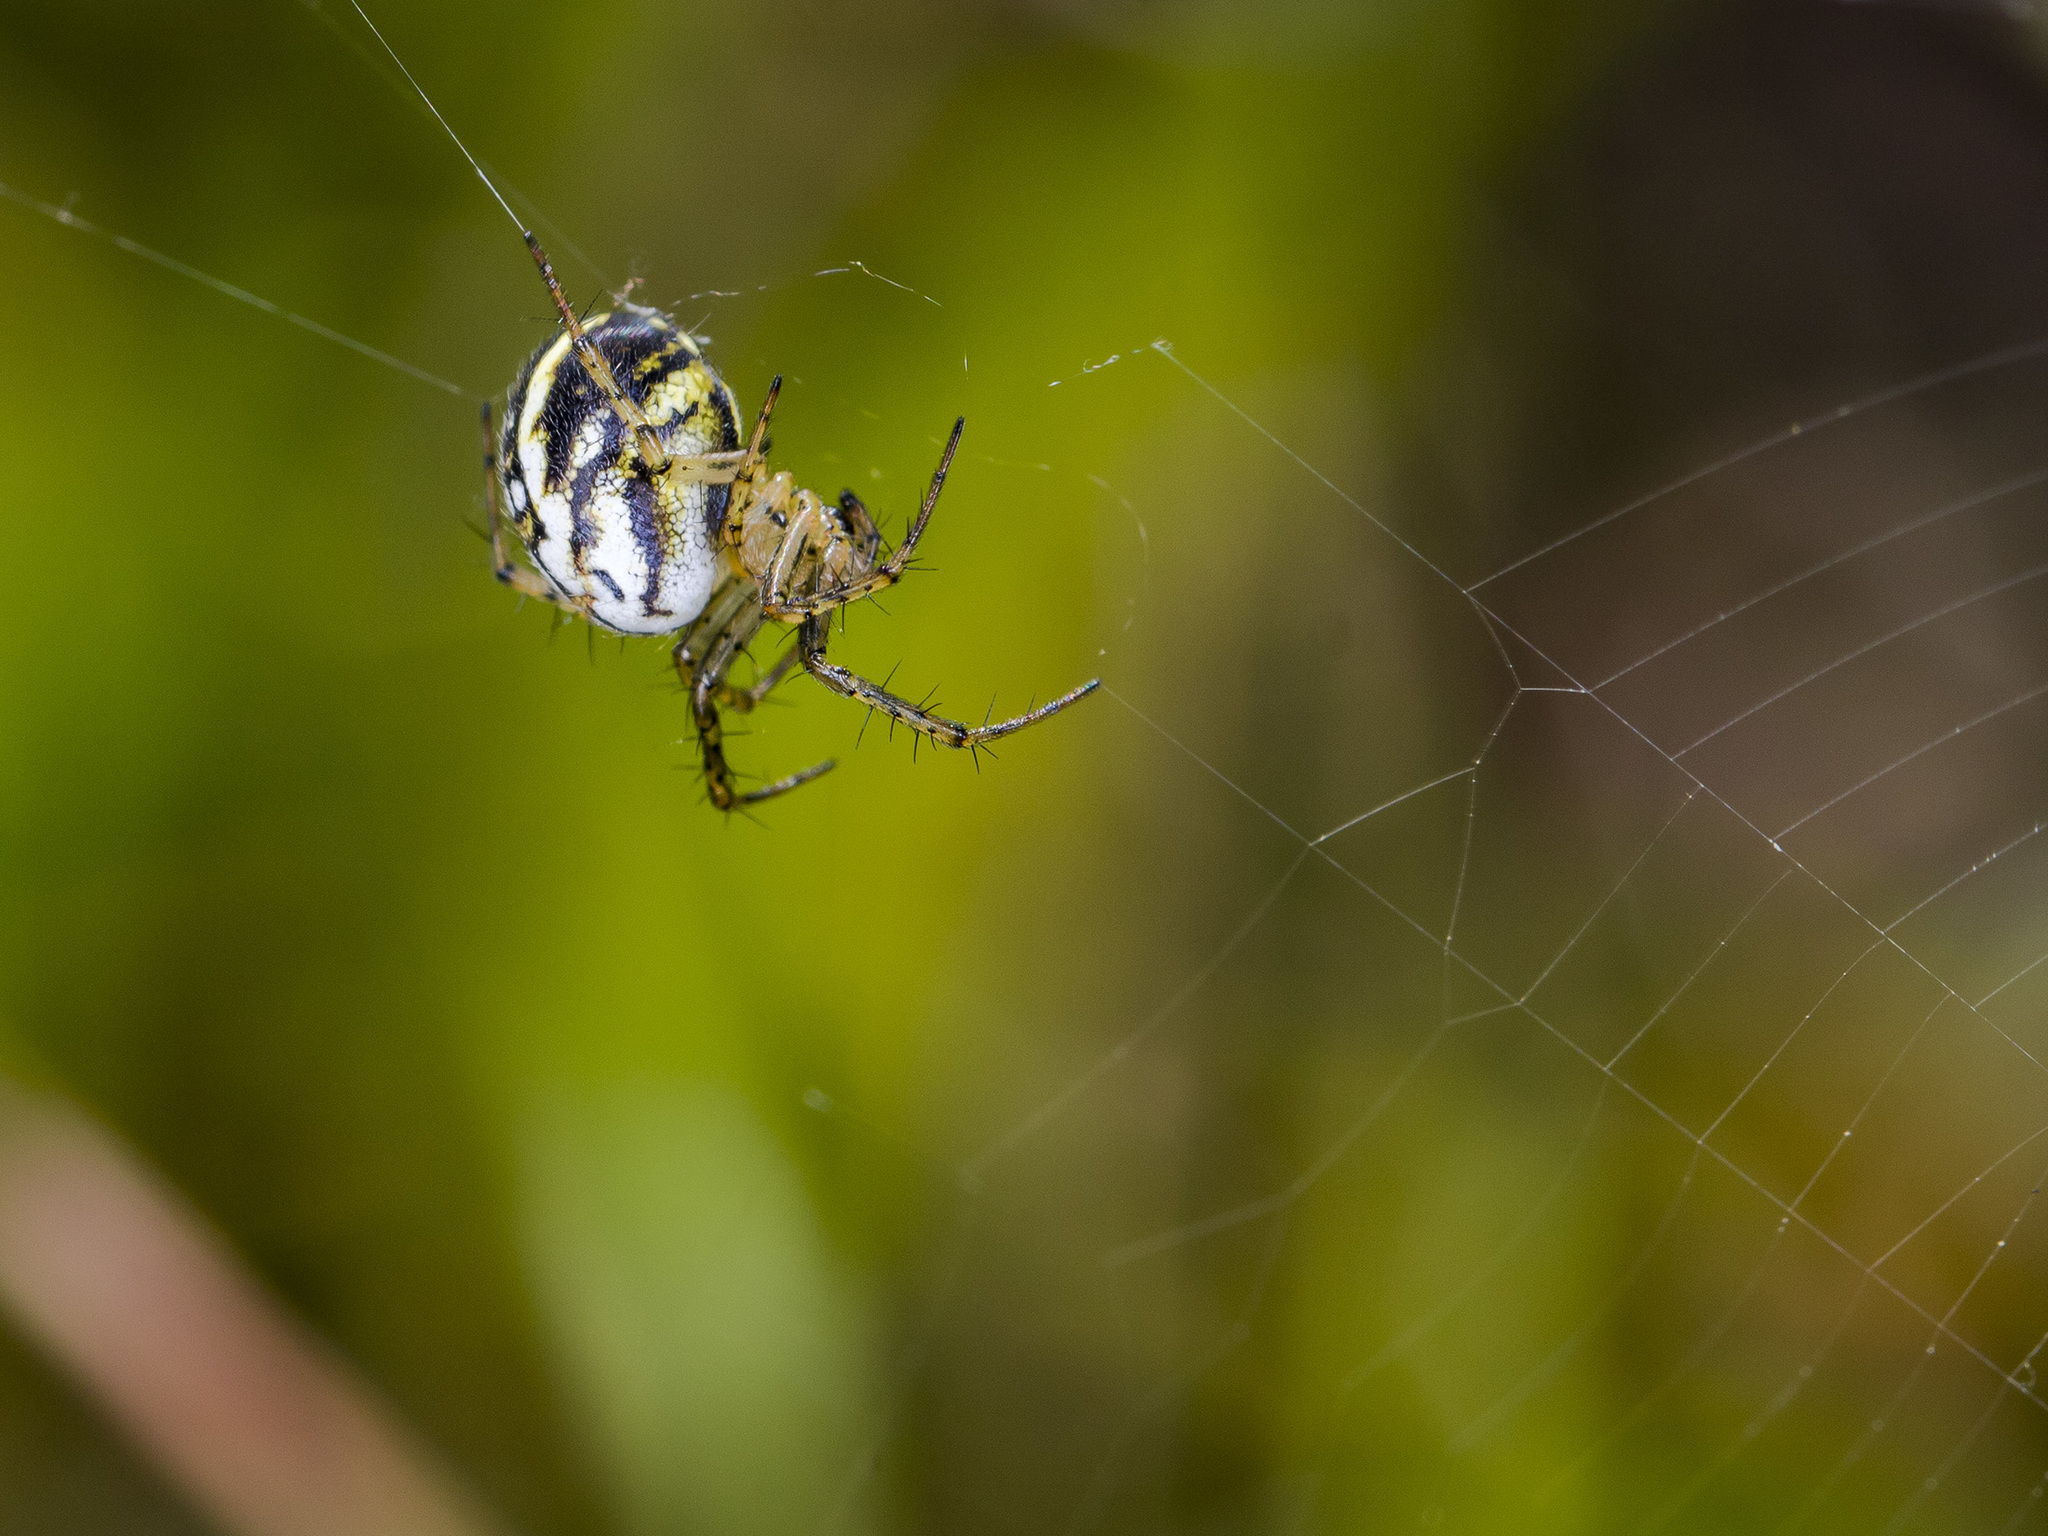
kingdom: Animalia
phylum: Arthropoda
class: Arachnida
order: Araneae
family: Araneidae
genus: Mangora
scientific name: Mangora acalypha
